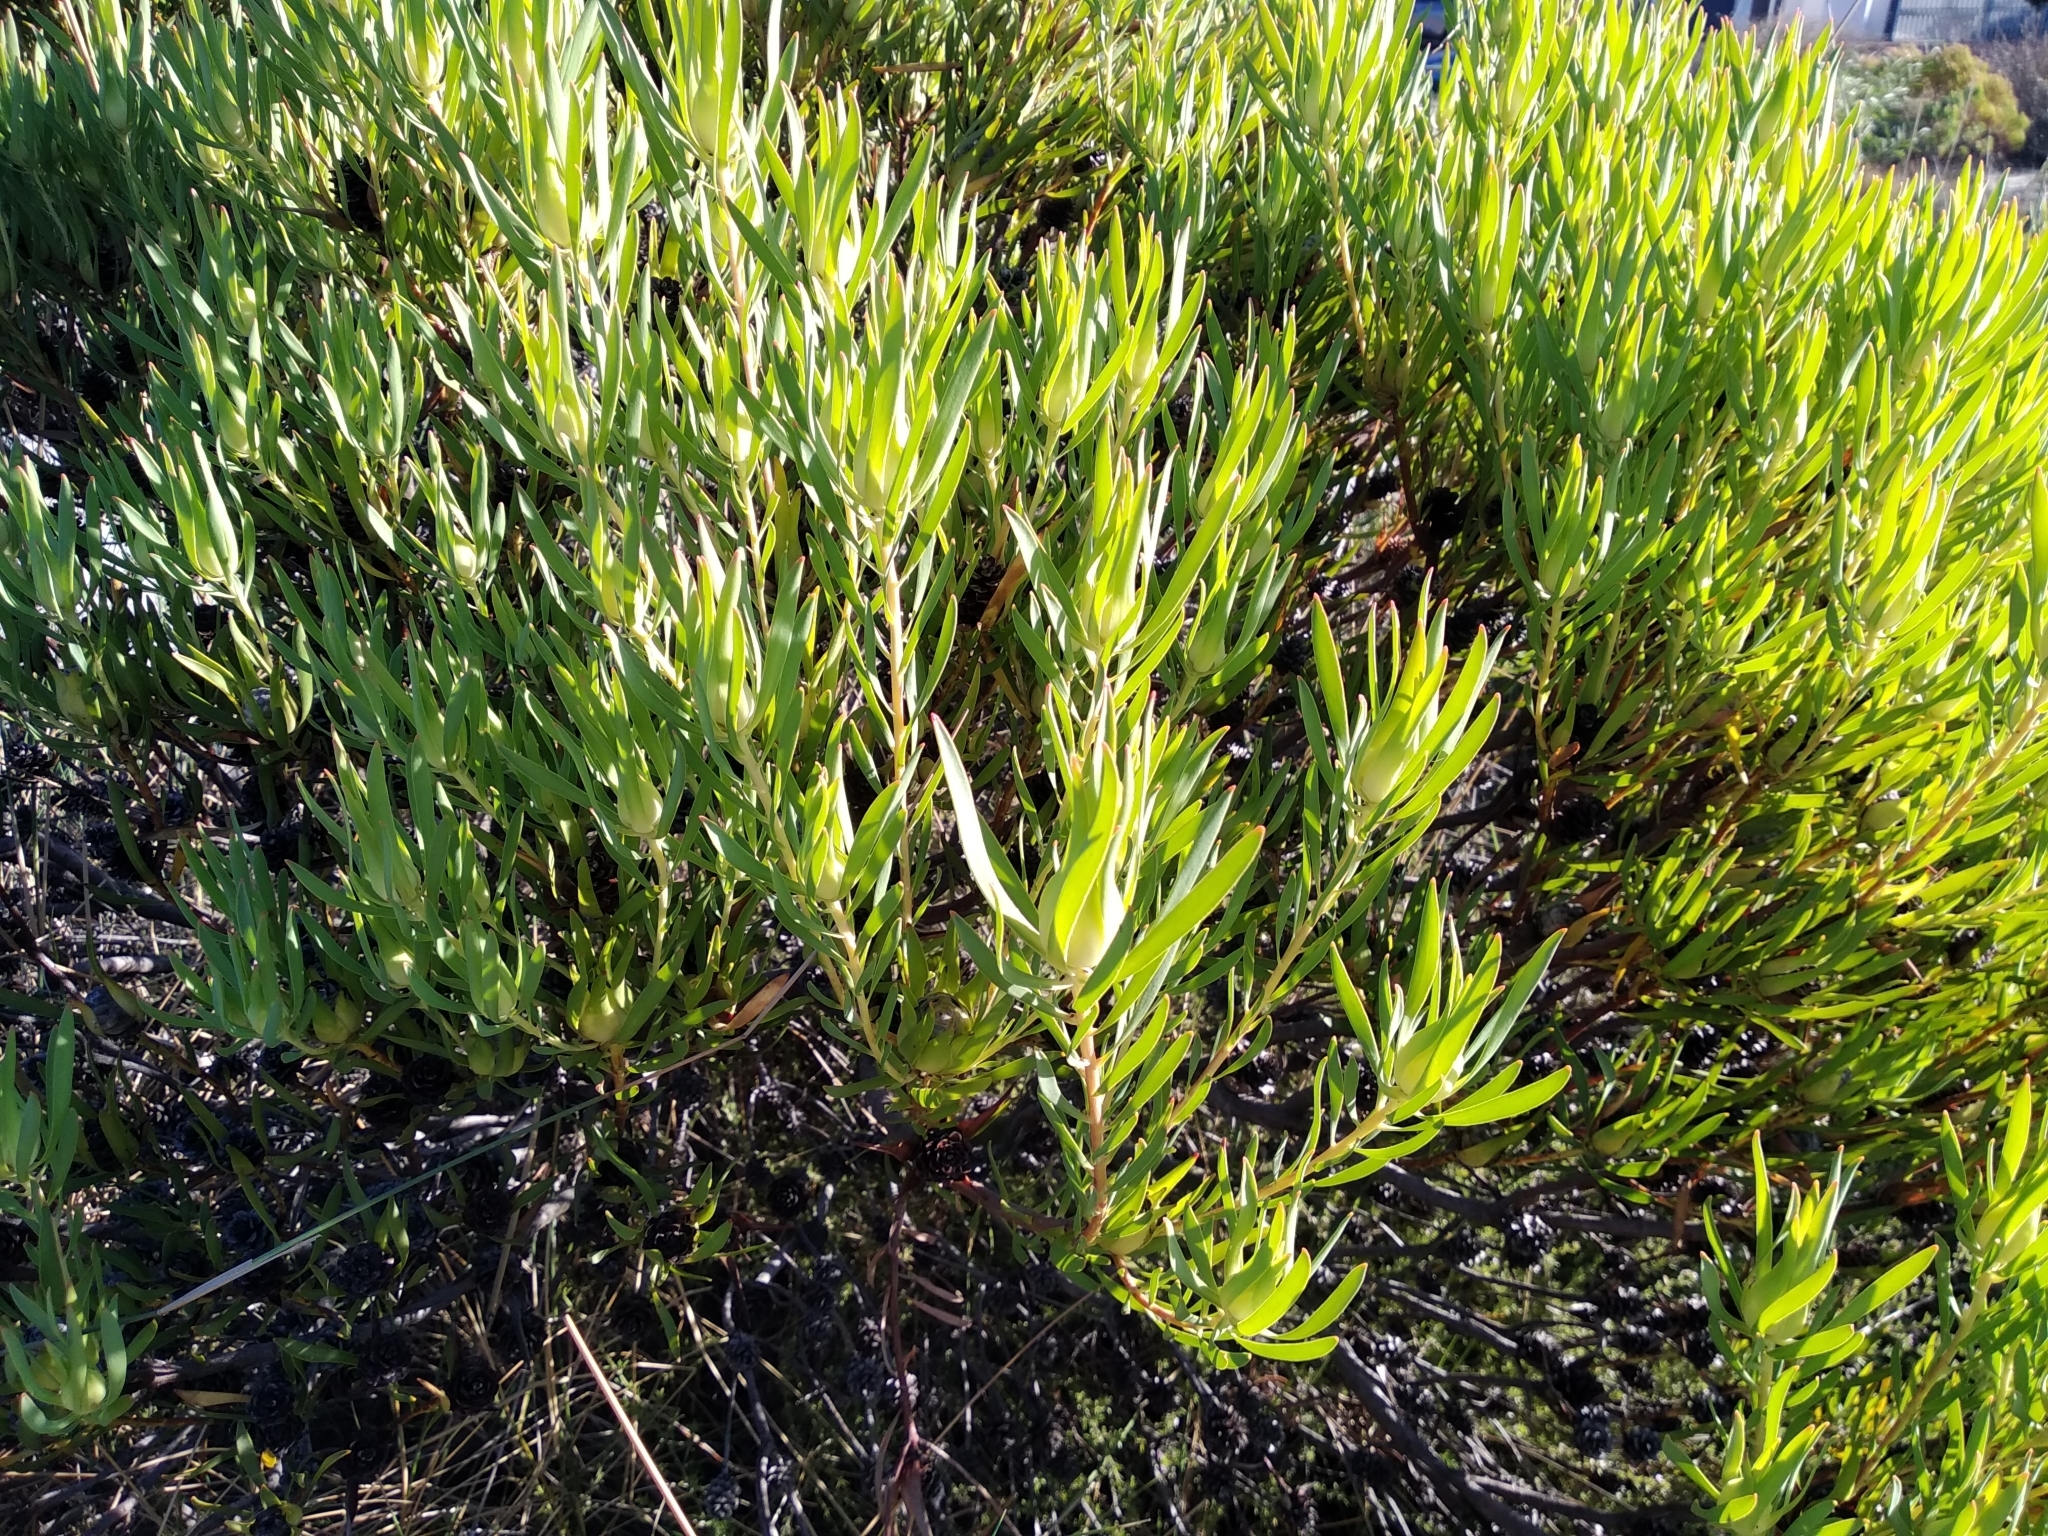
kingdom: Plantae
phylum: Tracheophyta
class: Magnoliopsida
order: Proteales
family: Proteaceae
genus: Leucadendron
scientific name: Leucadendron salignum
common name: Common sunshine conebush
